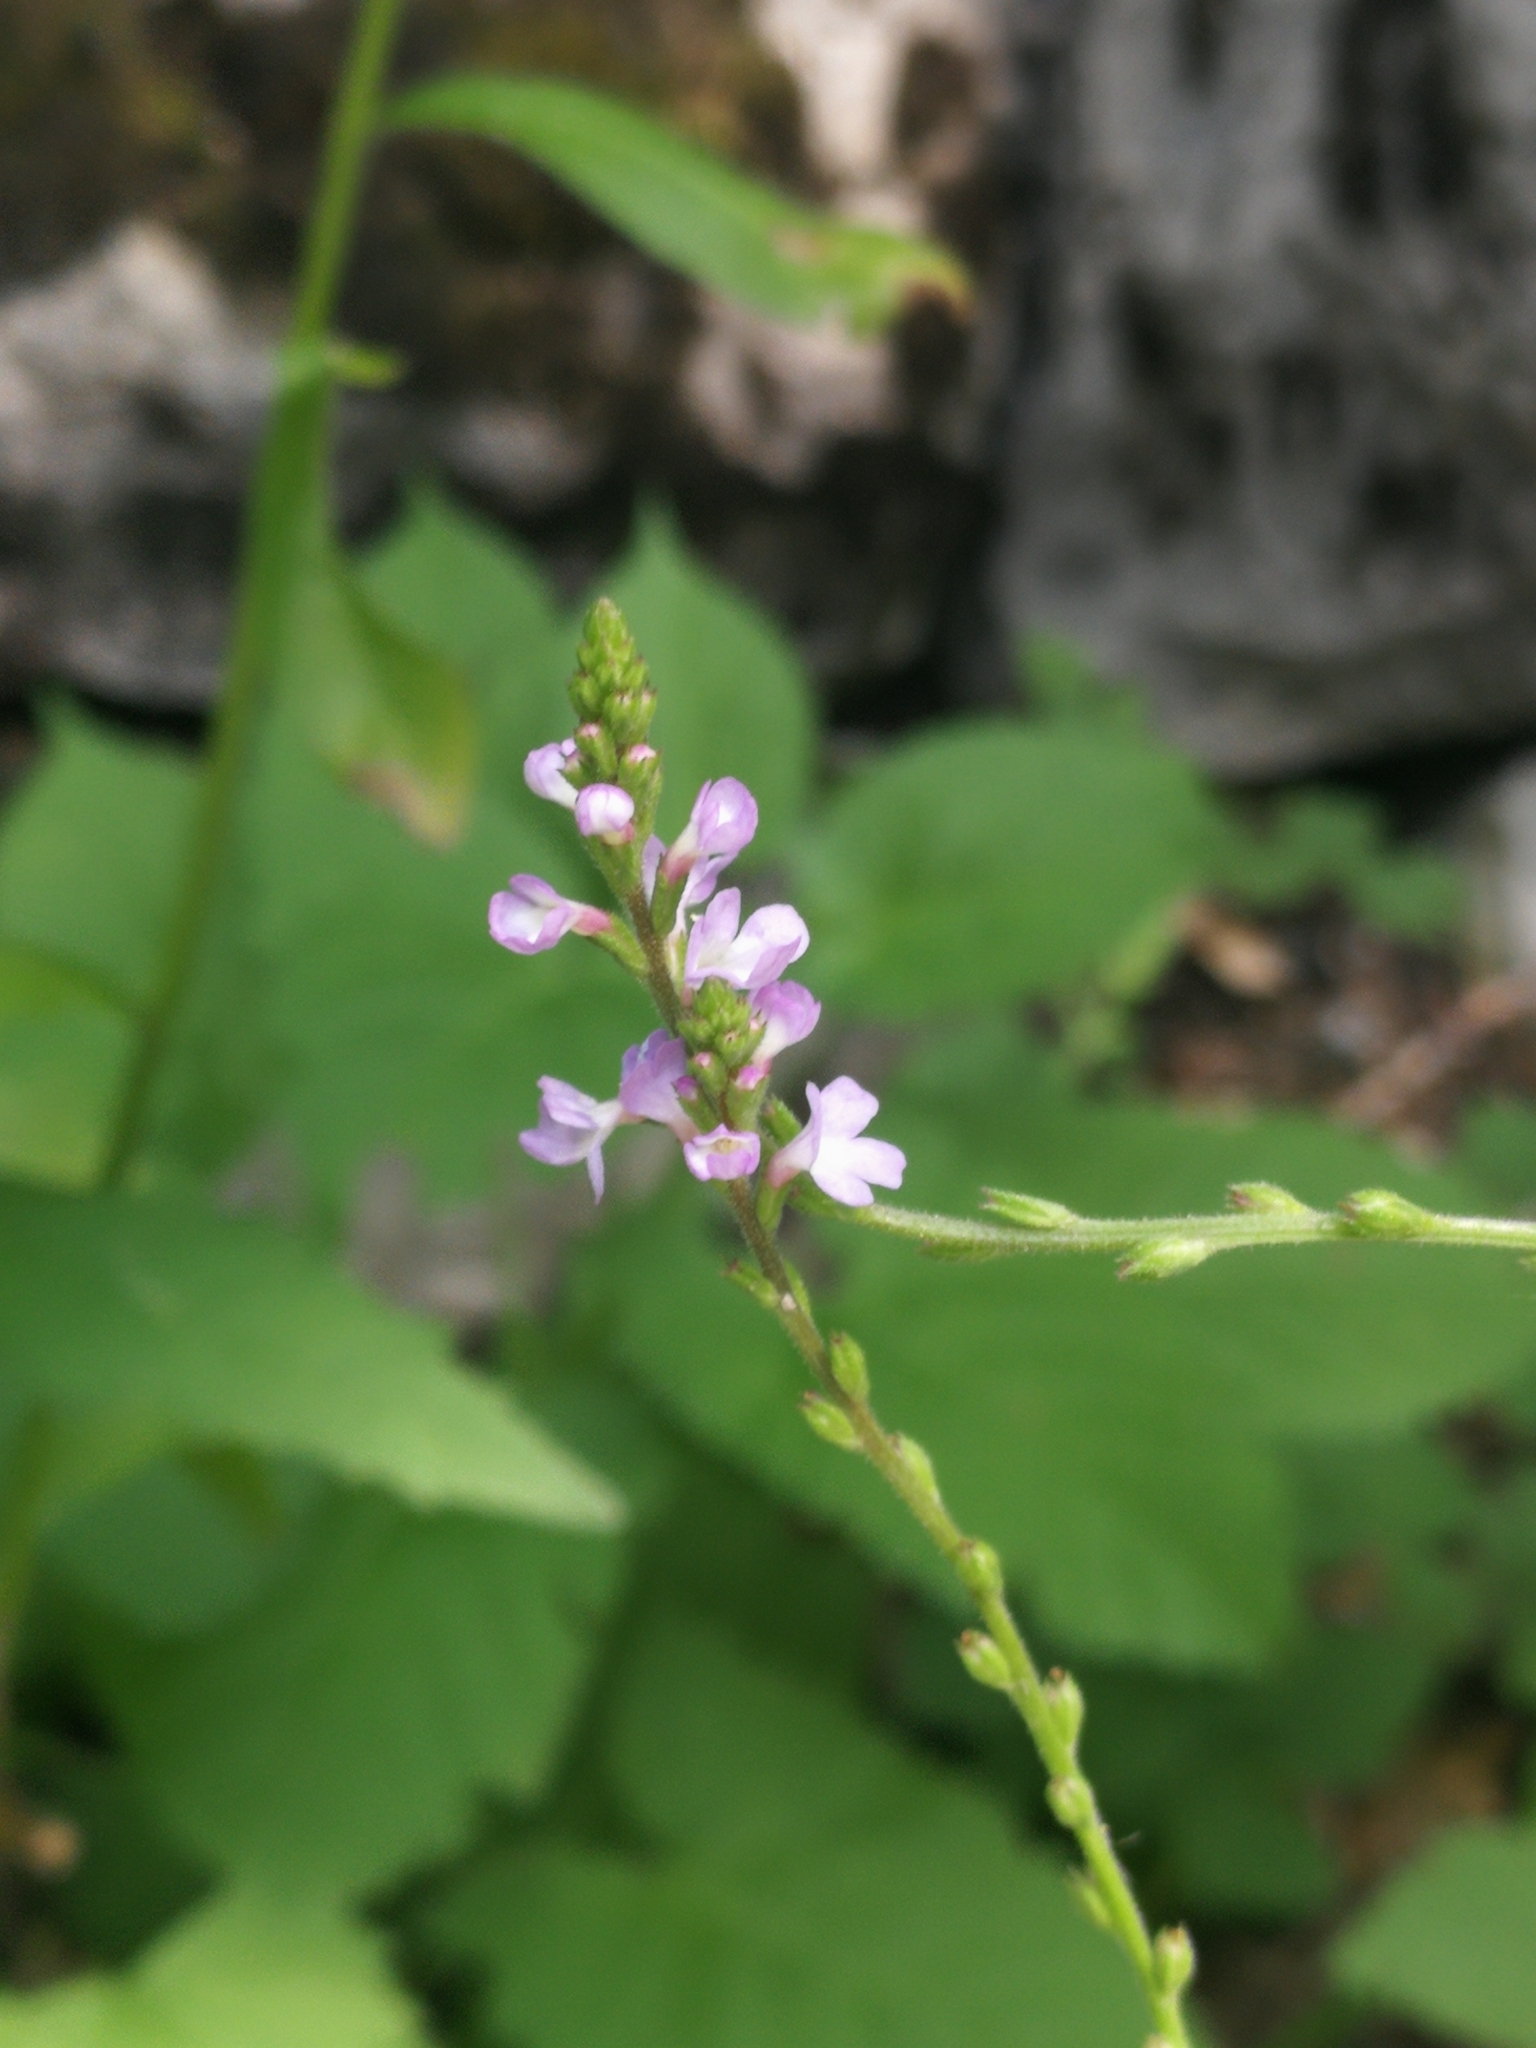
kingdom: Plantae
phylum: Tracheophyta
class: Magnoliopsida
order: Lamiales
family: Verbenaceae
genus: Verbena
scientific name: Verbena officinalis
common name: Vervain
